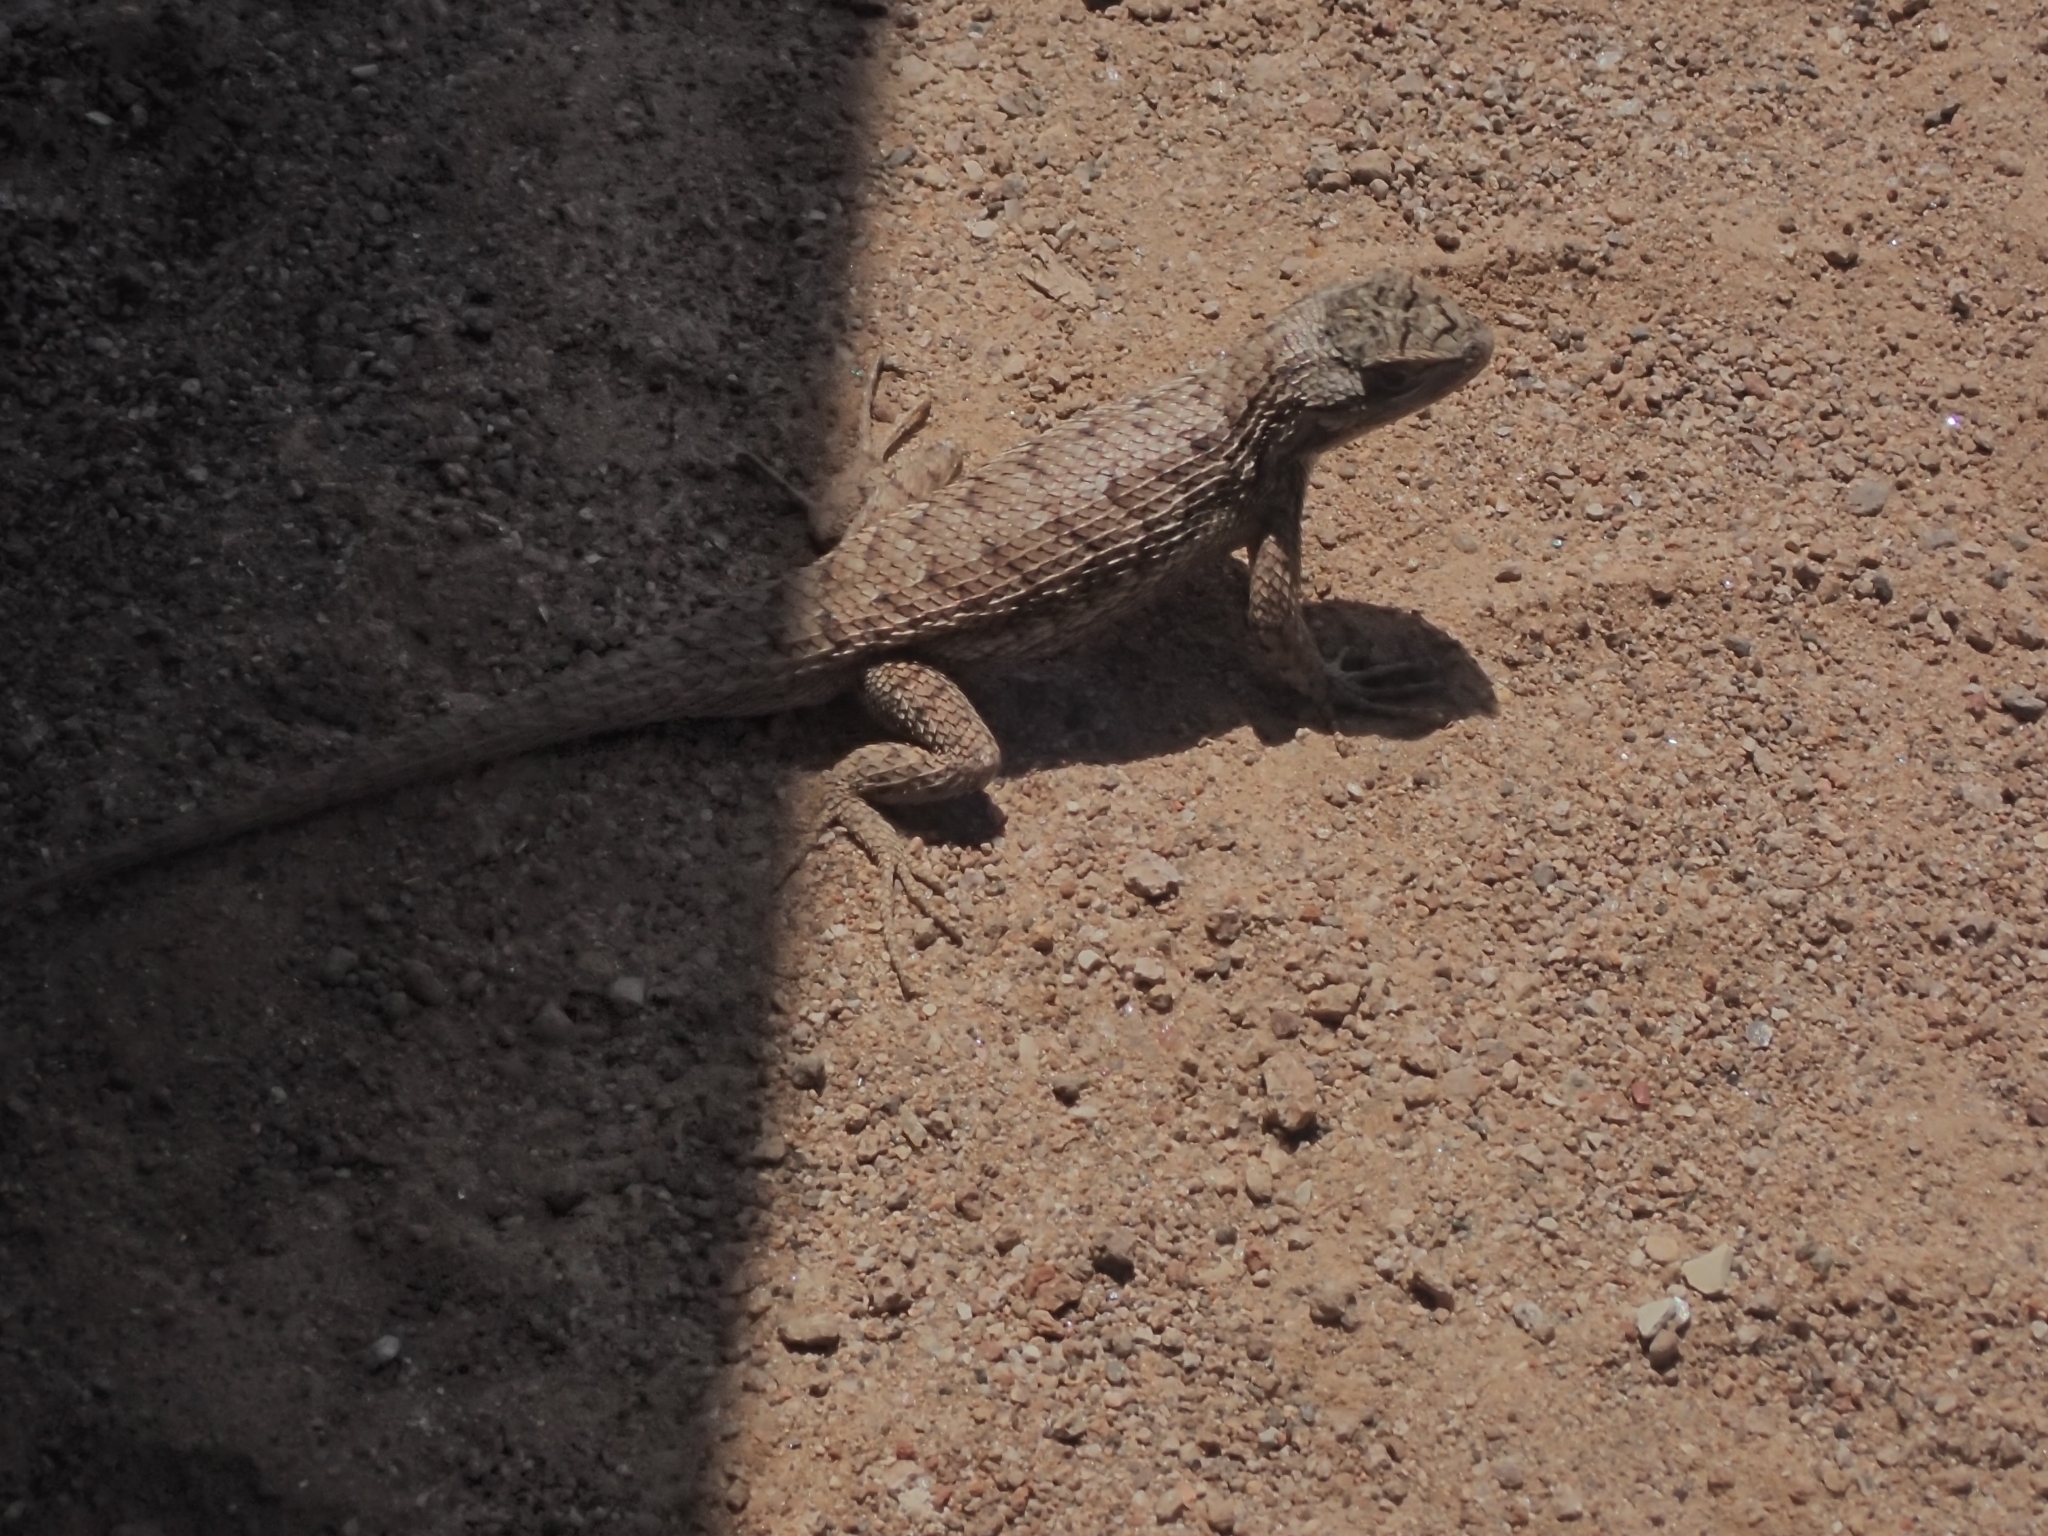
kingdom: Animalia
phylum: Chordata
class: Squamata
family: Phrynosomatidae
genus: Sceloporus
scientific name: Sceloporus tristichus
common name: Plateau fence lizard
